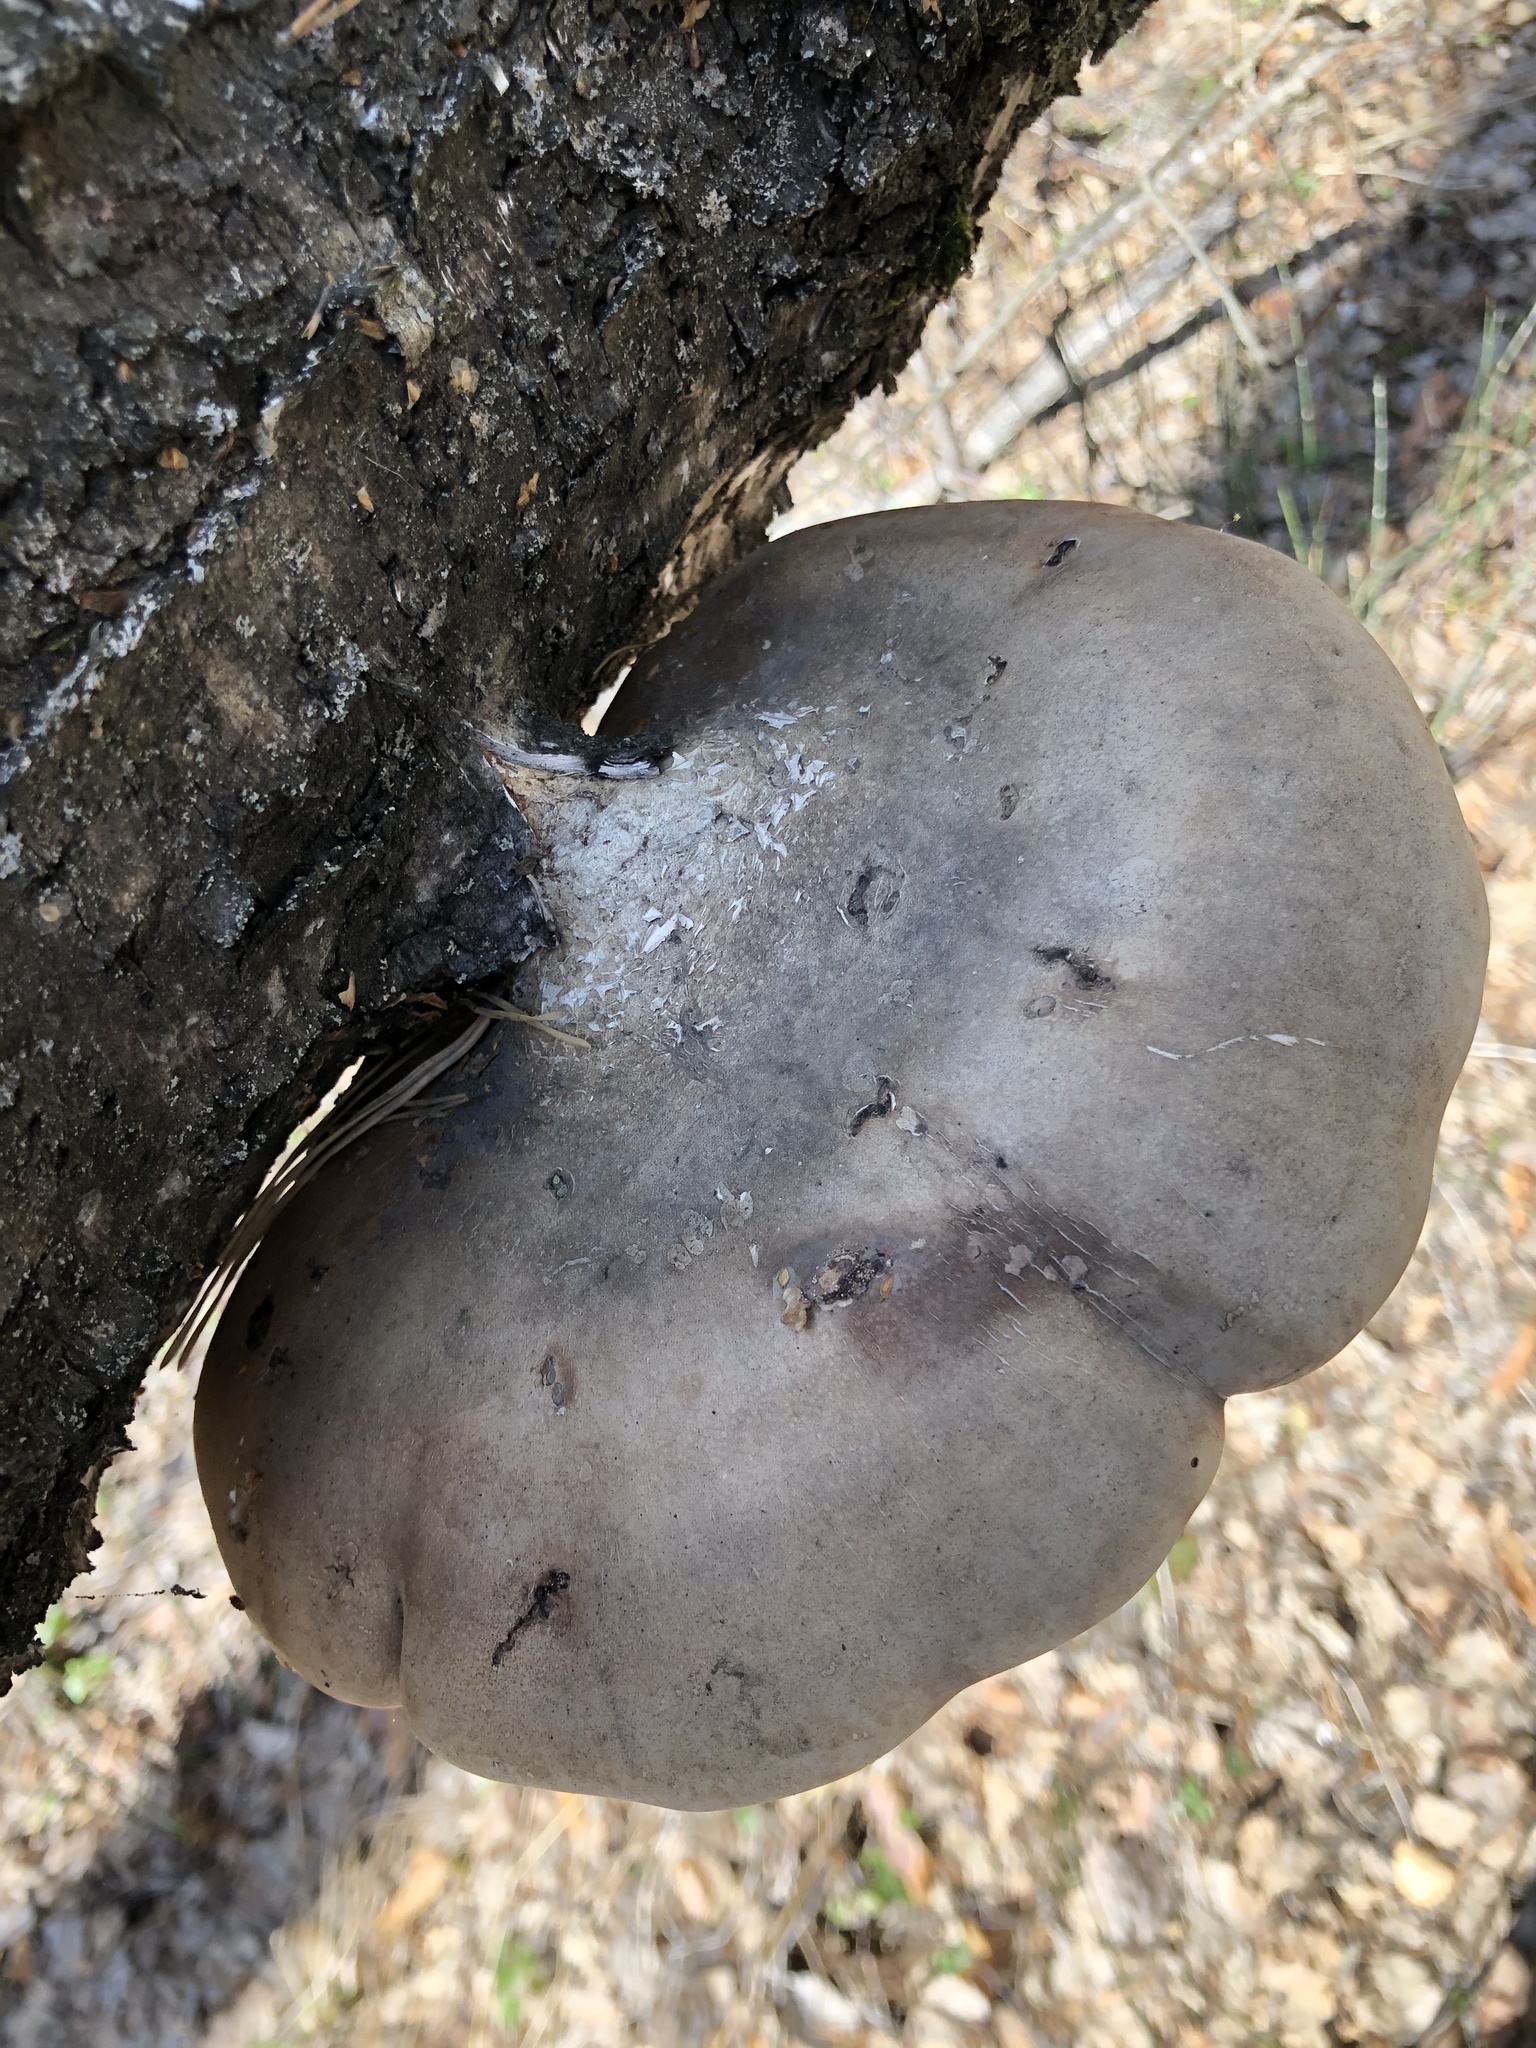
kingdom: Fungi
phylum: Basidiomycota
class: Agaricomycetes
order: Polyporales
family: Fomitopsidaceae
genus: Fomitopsis
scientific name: Fomitopsis betulina
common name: Birch polypore
